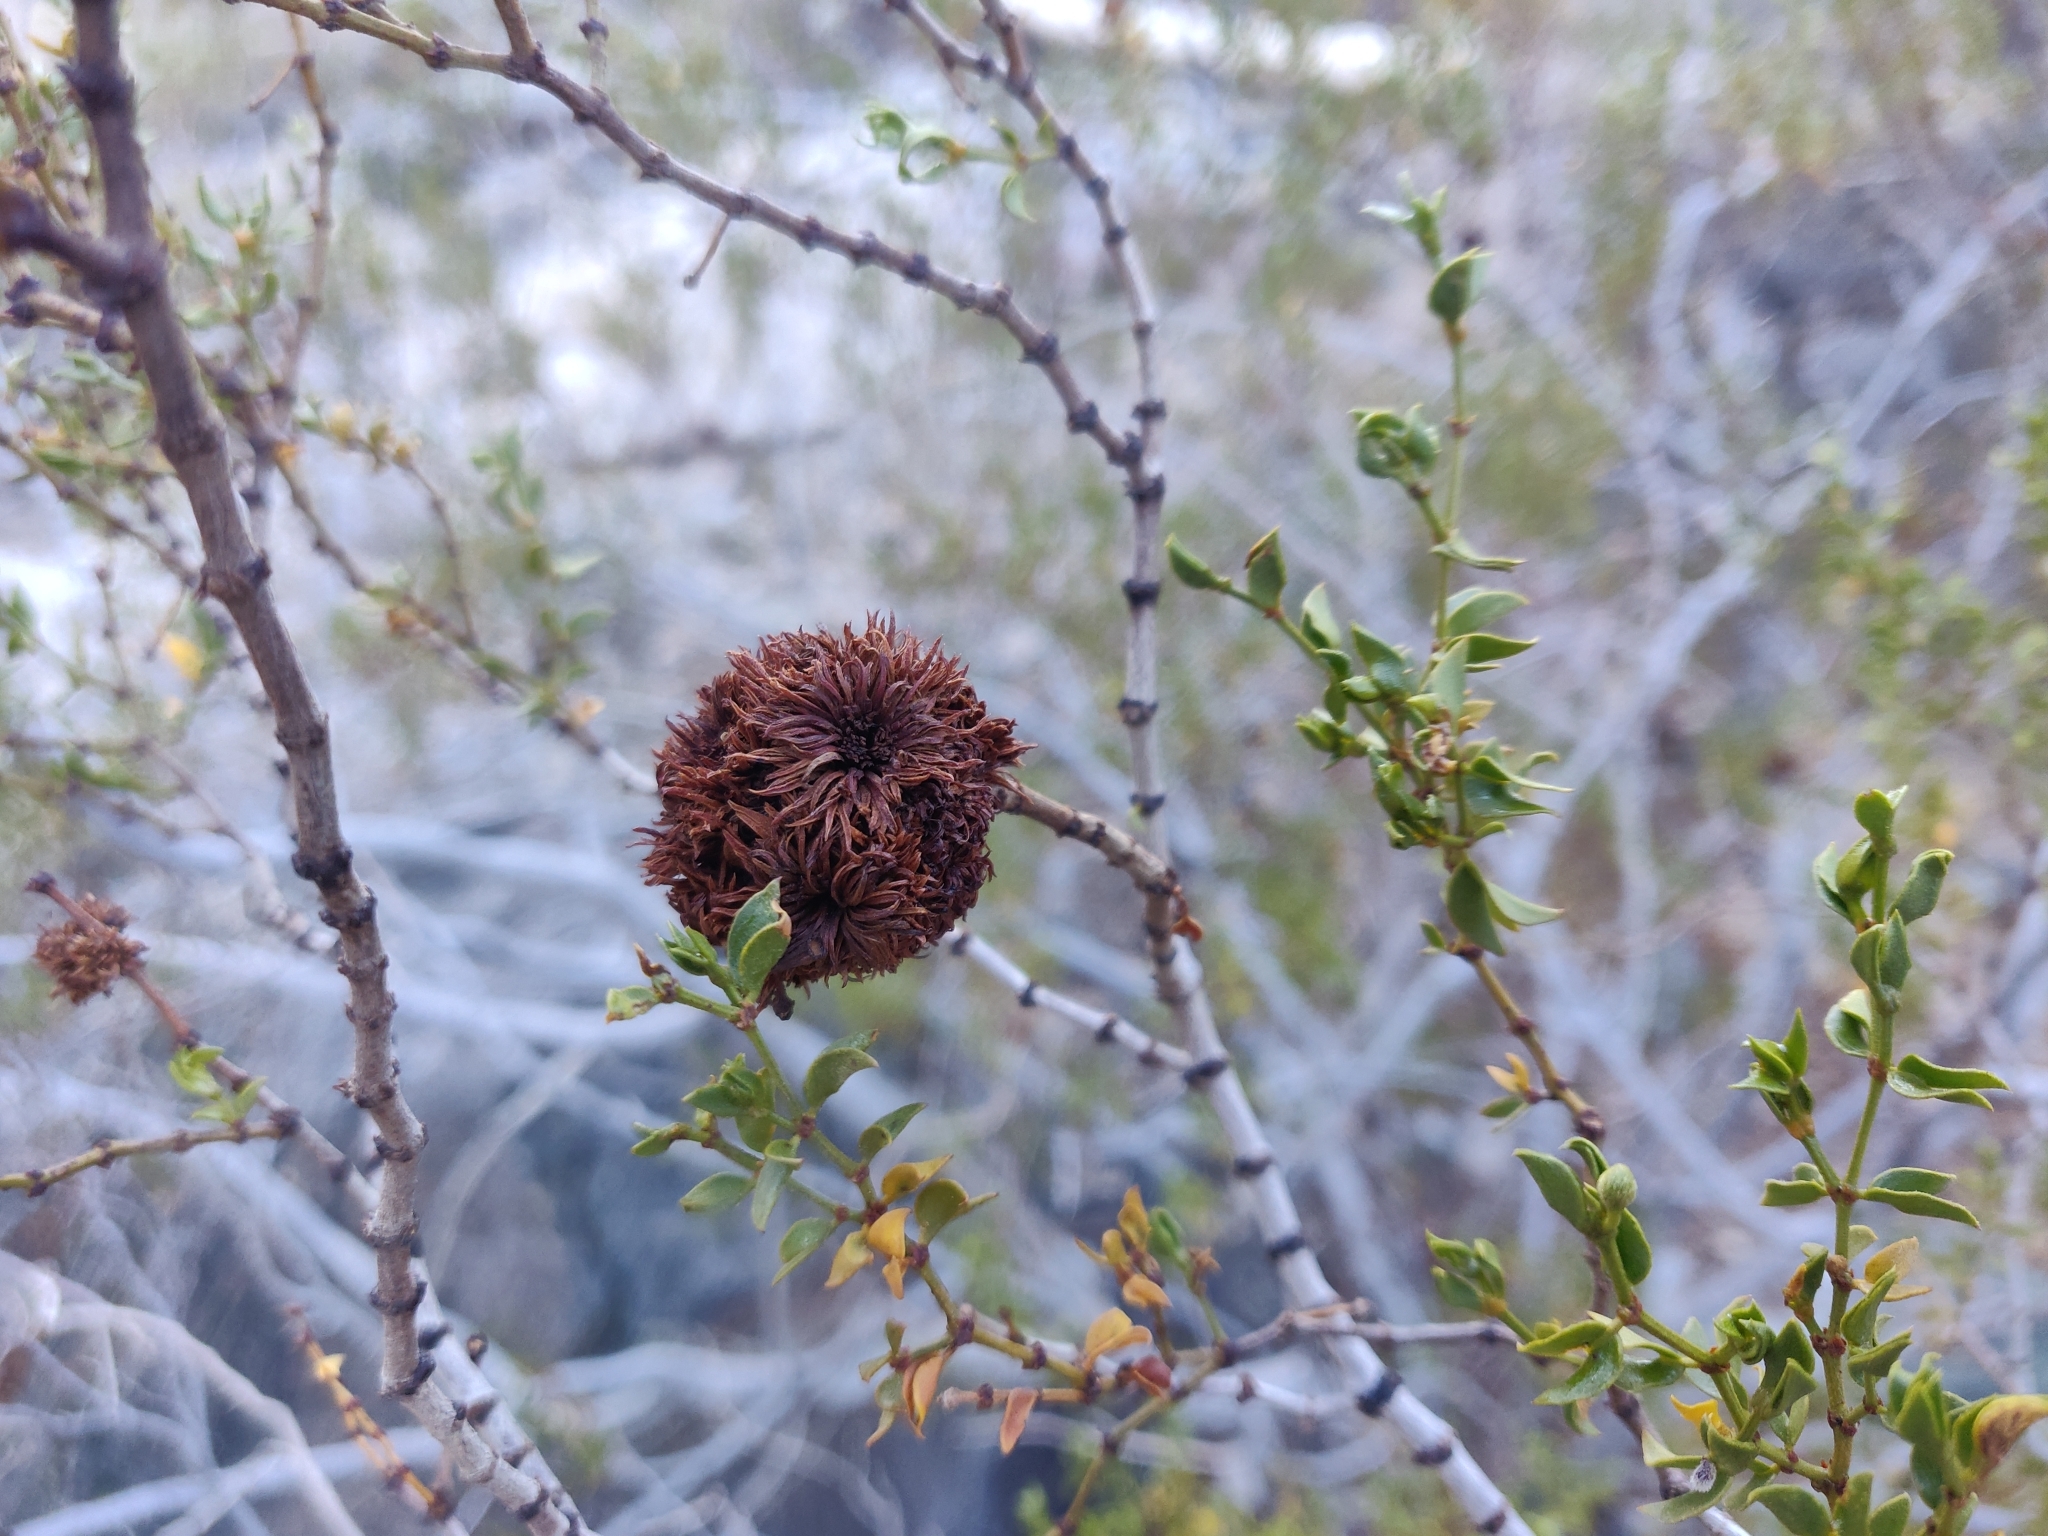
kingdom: Animalia
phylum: Arthropoda
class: Insecta
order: Diptera
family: Cecidomyiidae
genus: Asphondylia
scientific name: Asphondylia auripila
